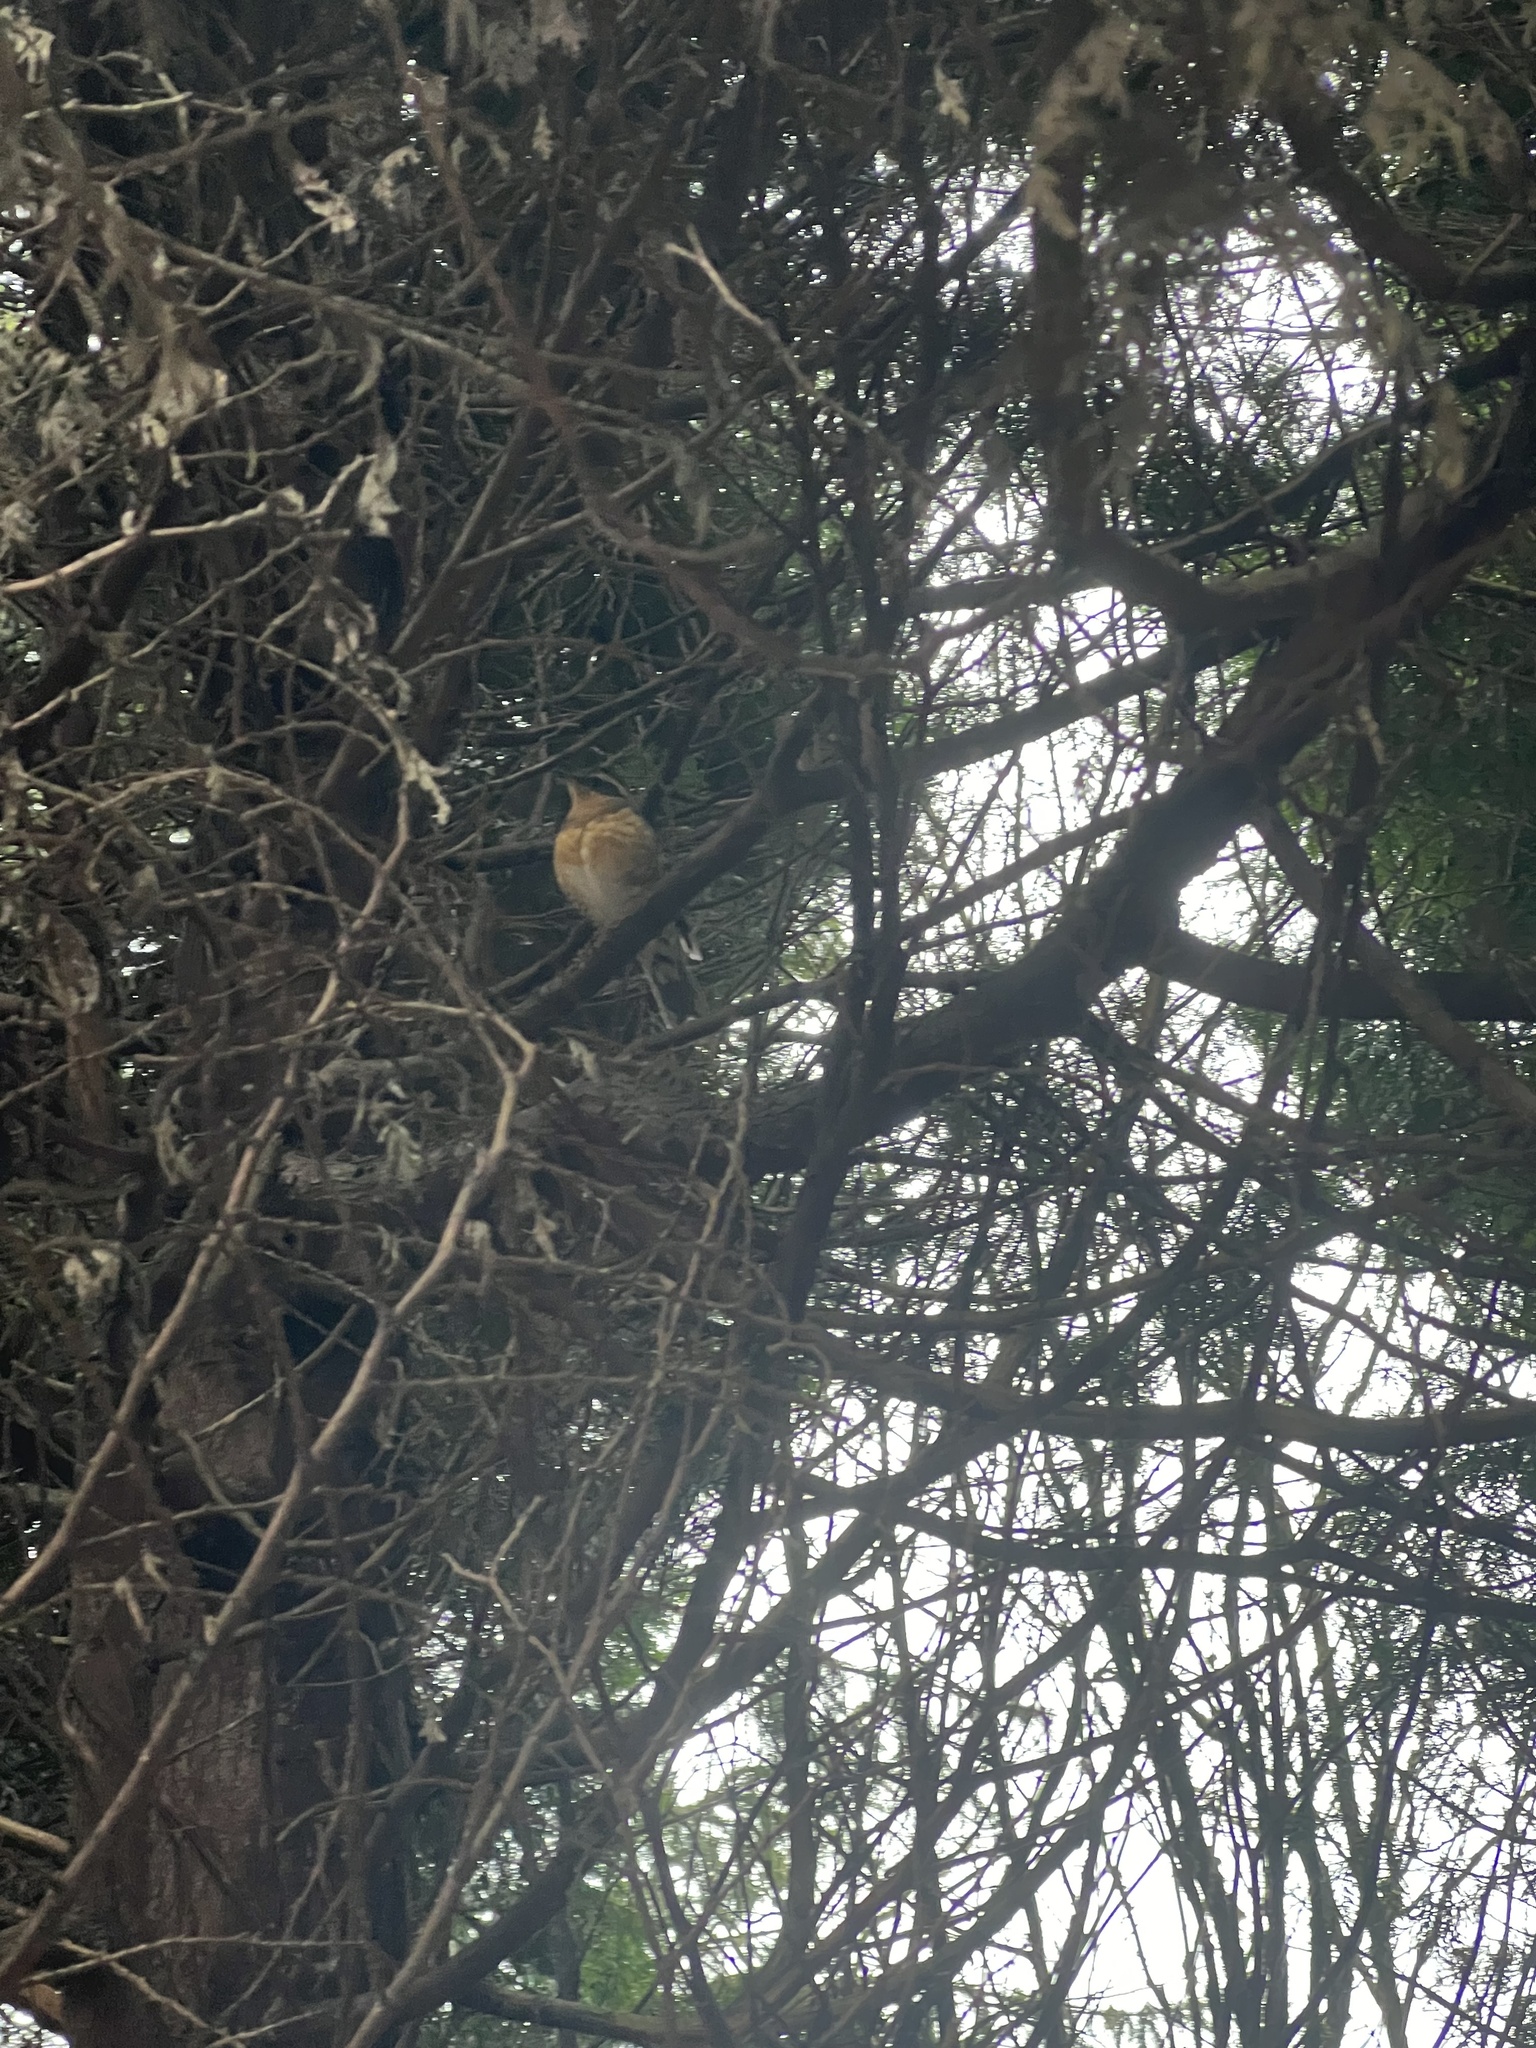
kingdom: Animalia
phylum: Chordata
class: Aves
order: Passeriformes
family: Turdidae
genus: Ixoreus
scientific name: Ixoreus naevius
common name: Varied thrush
